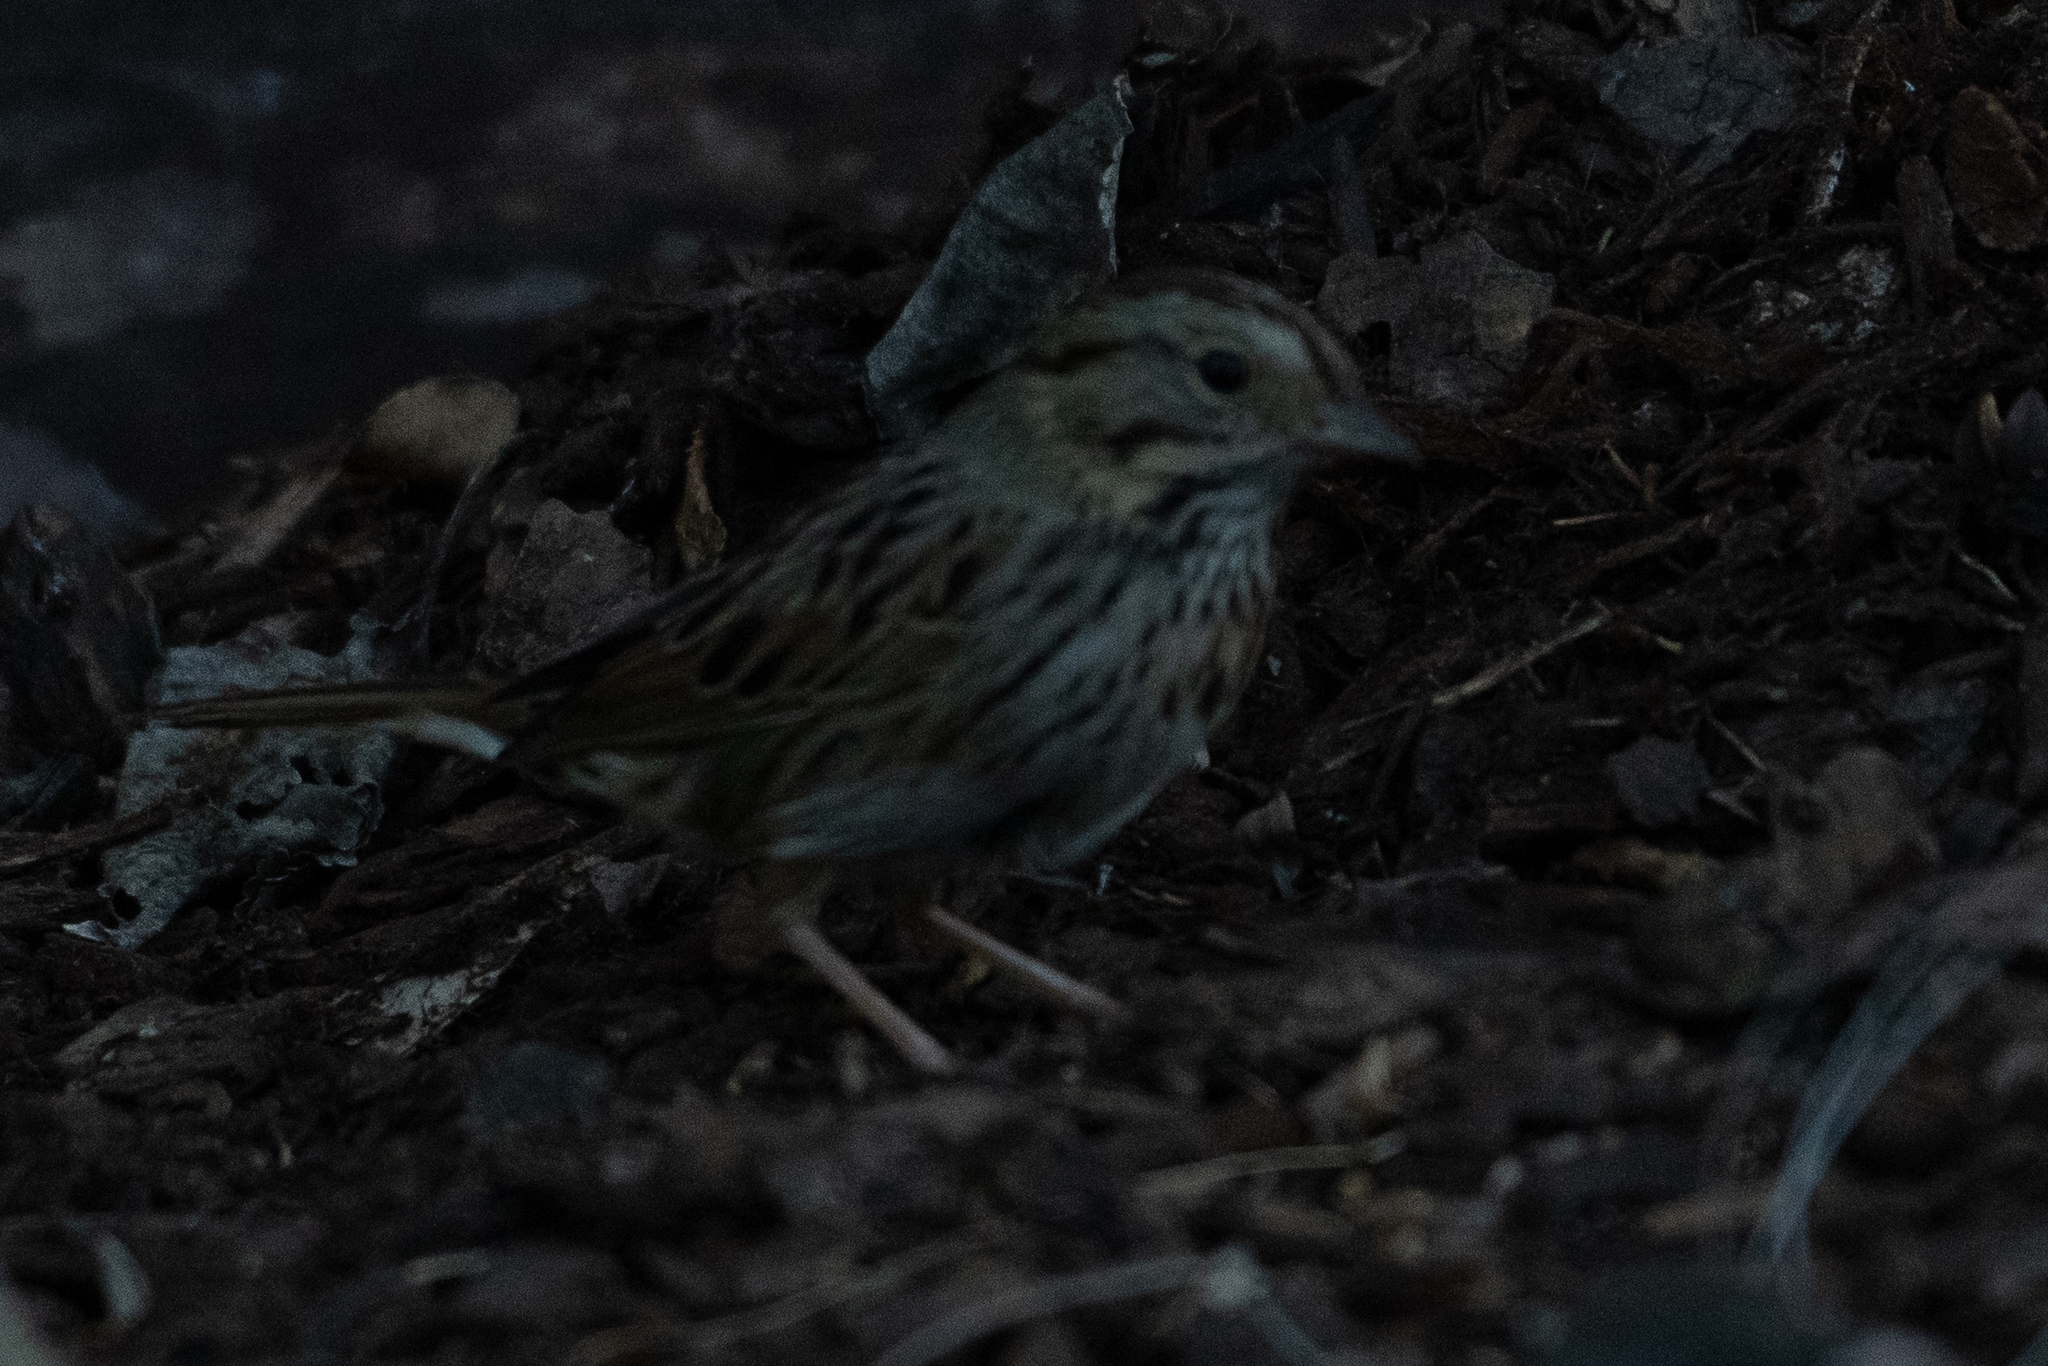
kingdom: Animalia
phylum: Chordata
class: Aves
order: Passeriformes
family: Passerellidae
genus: Melospiza
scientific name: Melospiza lincolnii
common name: Lincoln's sparrow
